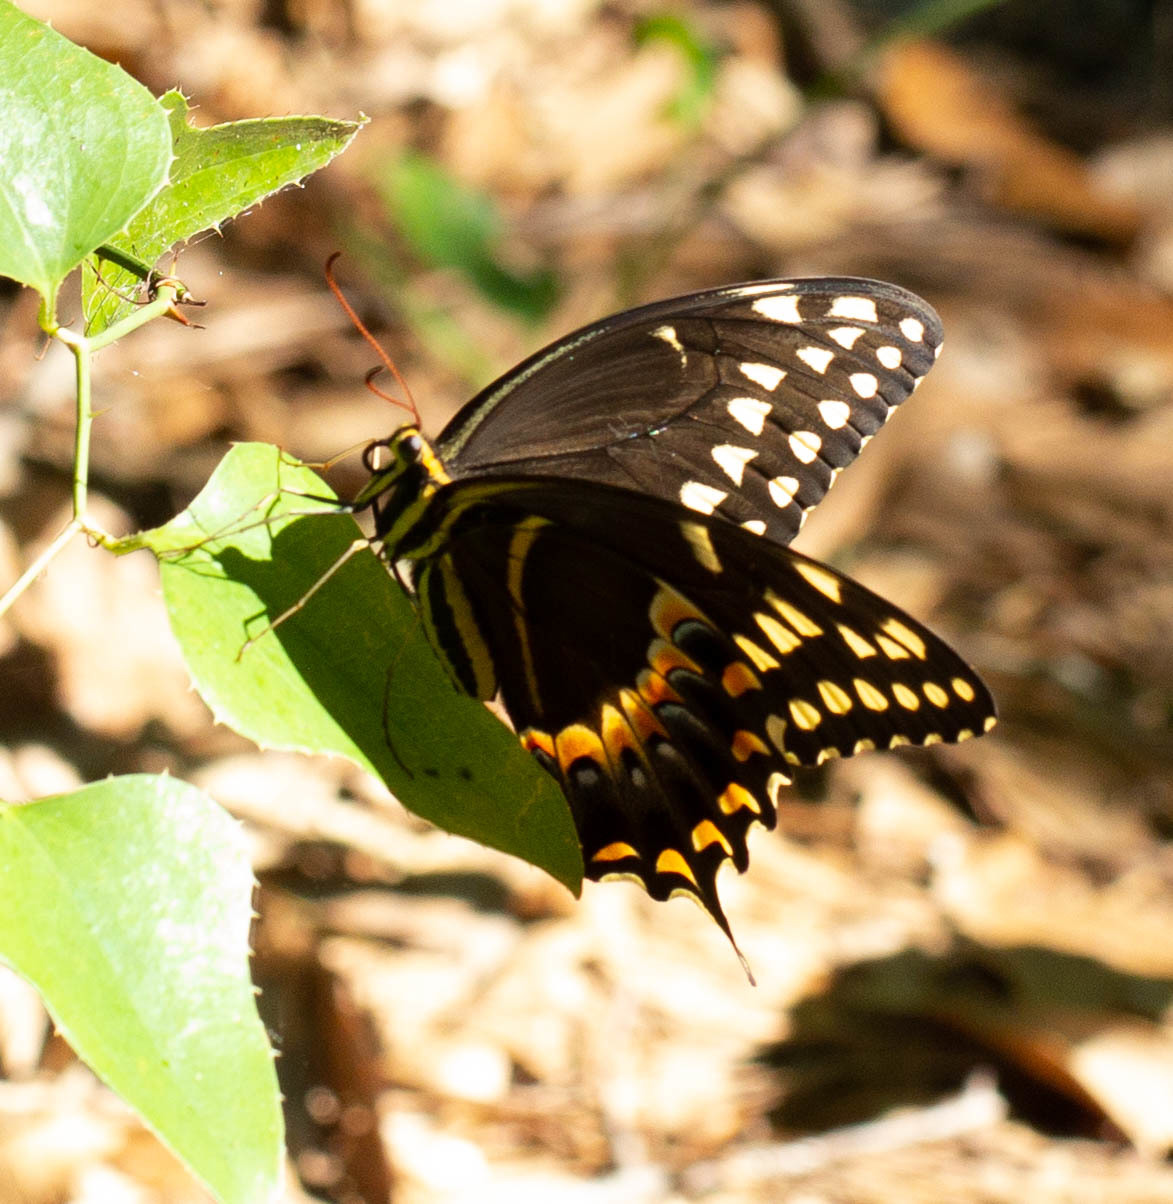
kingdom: Animalia
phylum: Arthropoda
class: Insecta
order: Lepidoptera
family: Papilionidae
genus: Papilio
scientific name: Papilio palamedes
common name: Palamedes swallowtail
